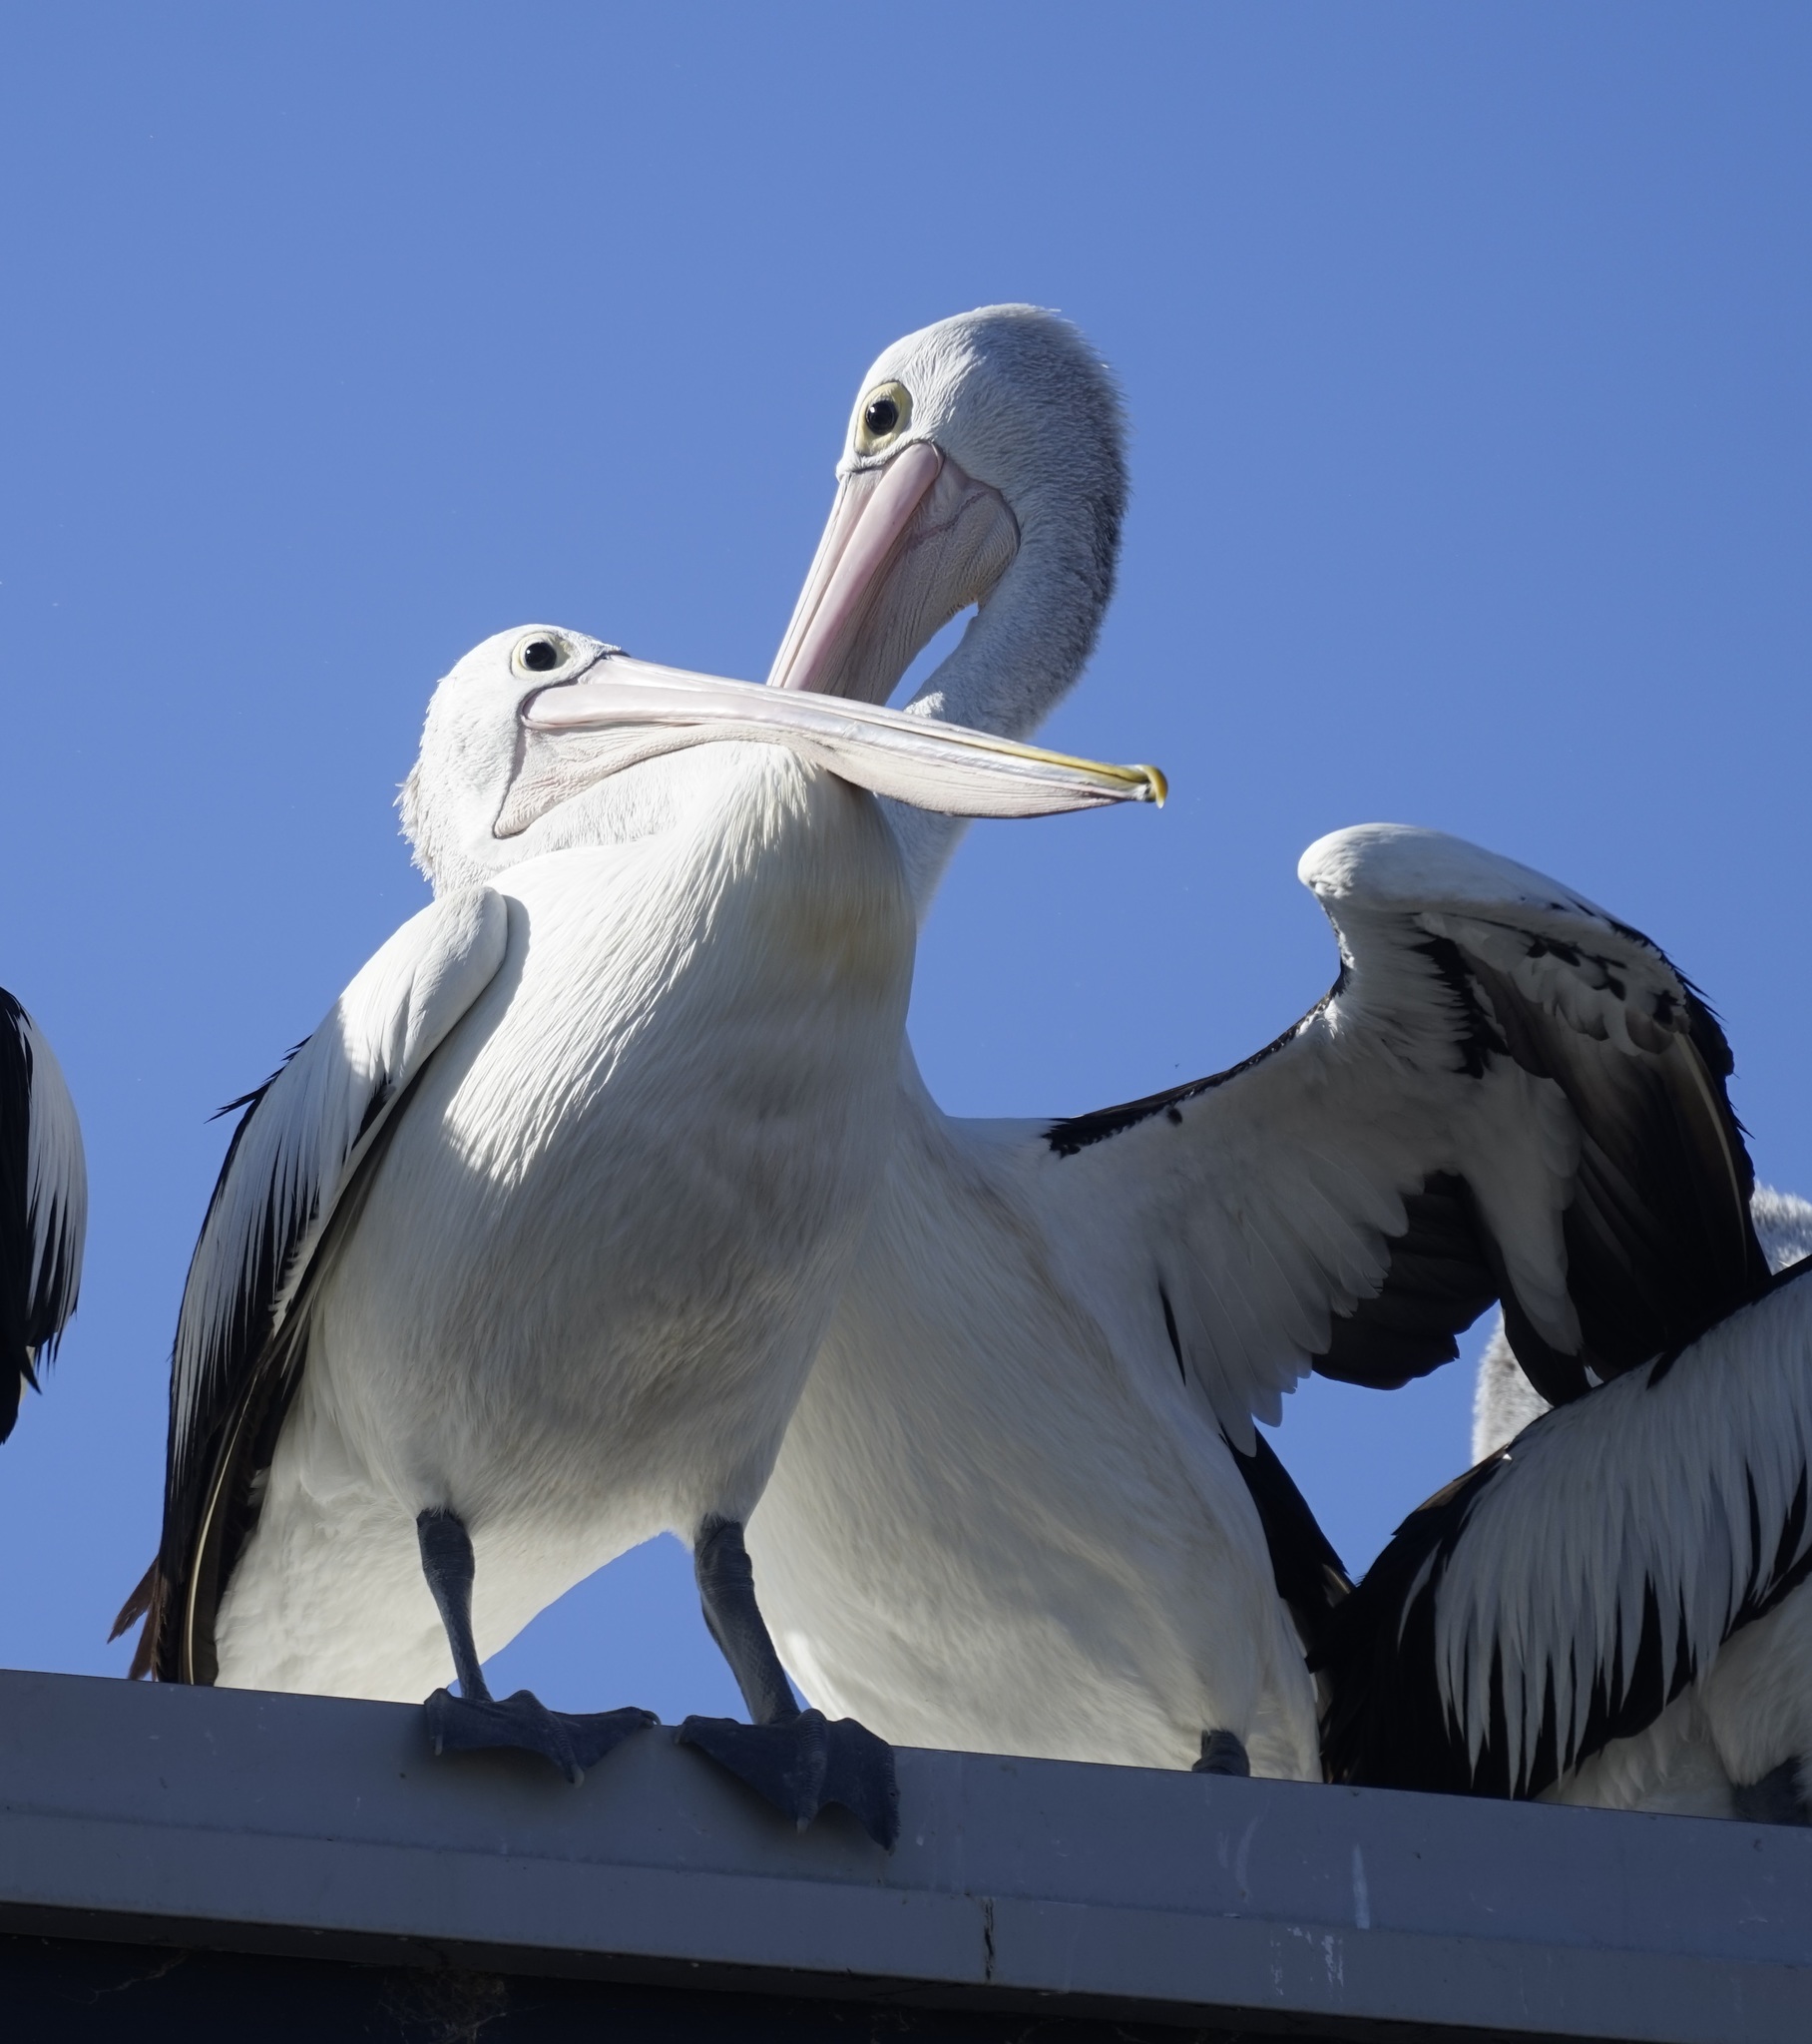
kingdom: Animalia
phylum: Chordata
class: Aves
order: Pelecaniformes
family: Pelecanidae
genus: Pelecanus
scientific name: Pelecanus conspicillatus
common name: Australian pelican
